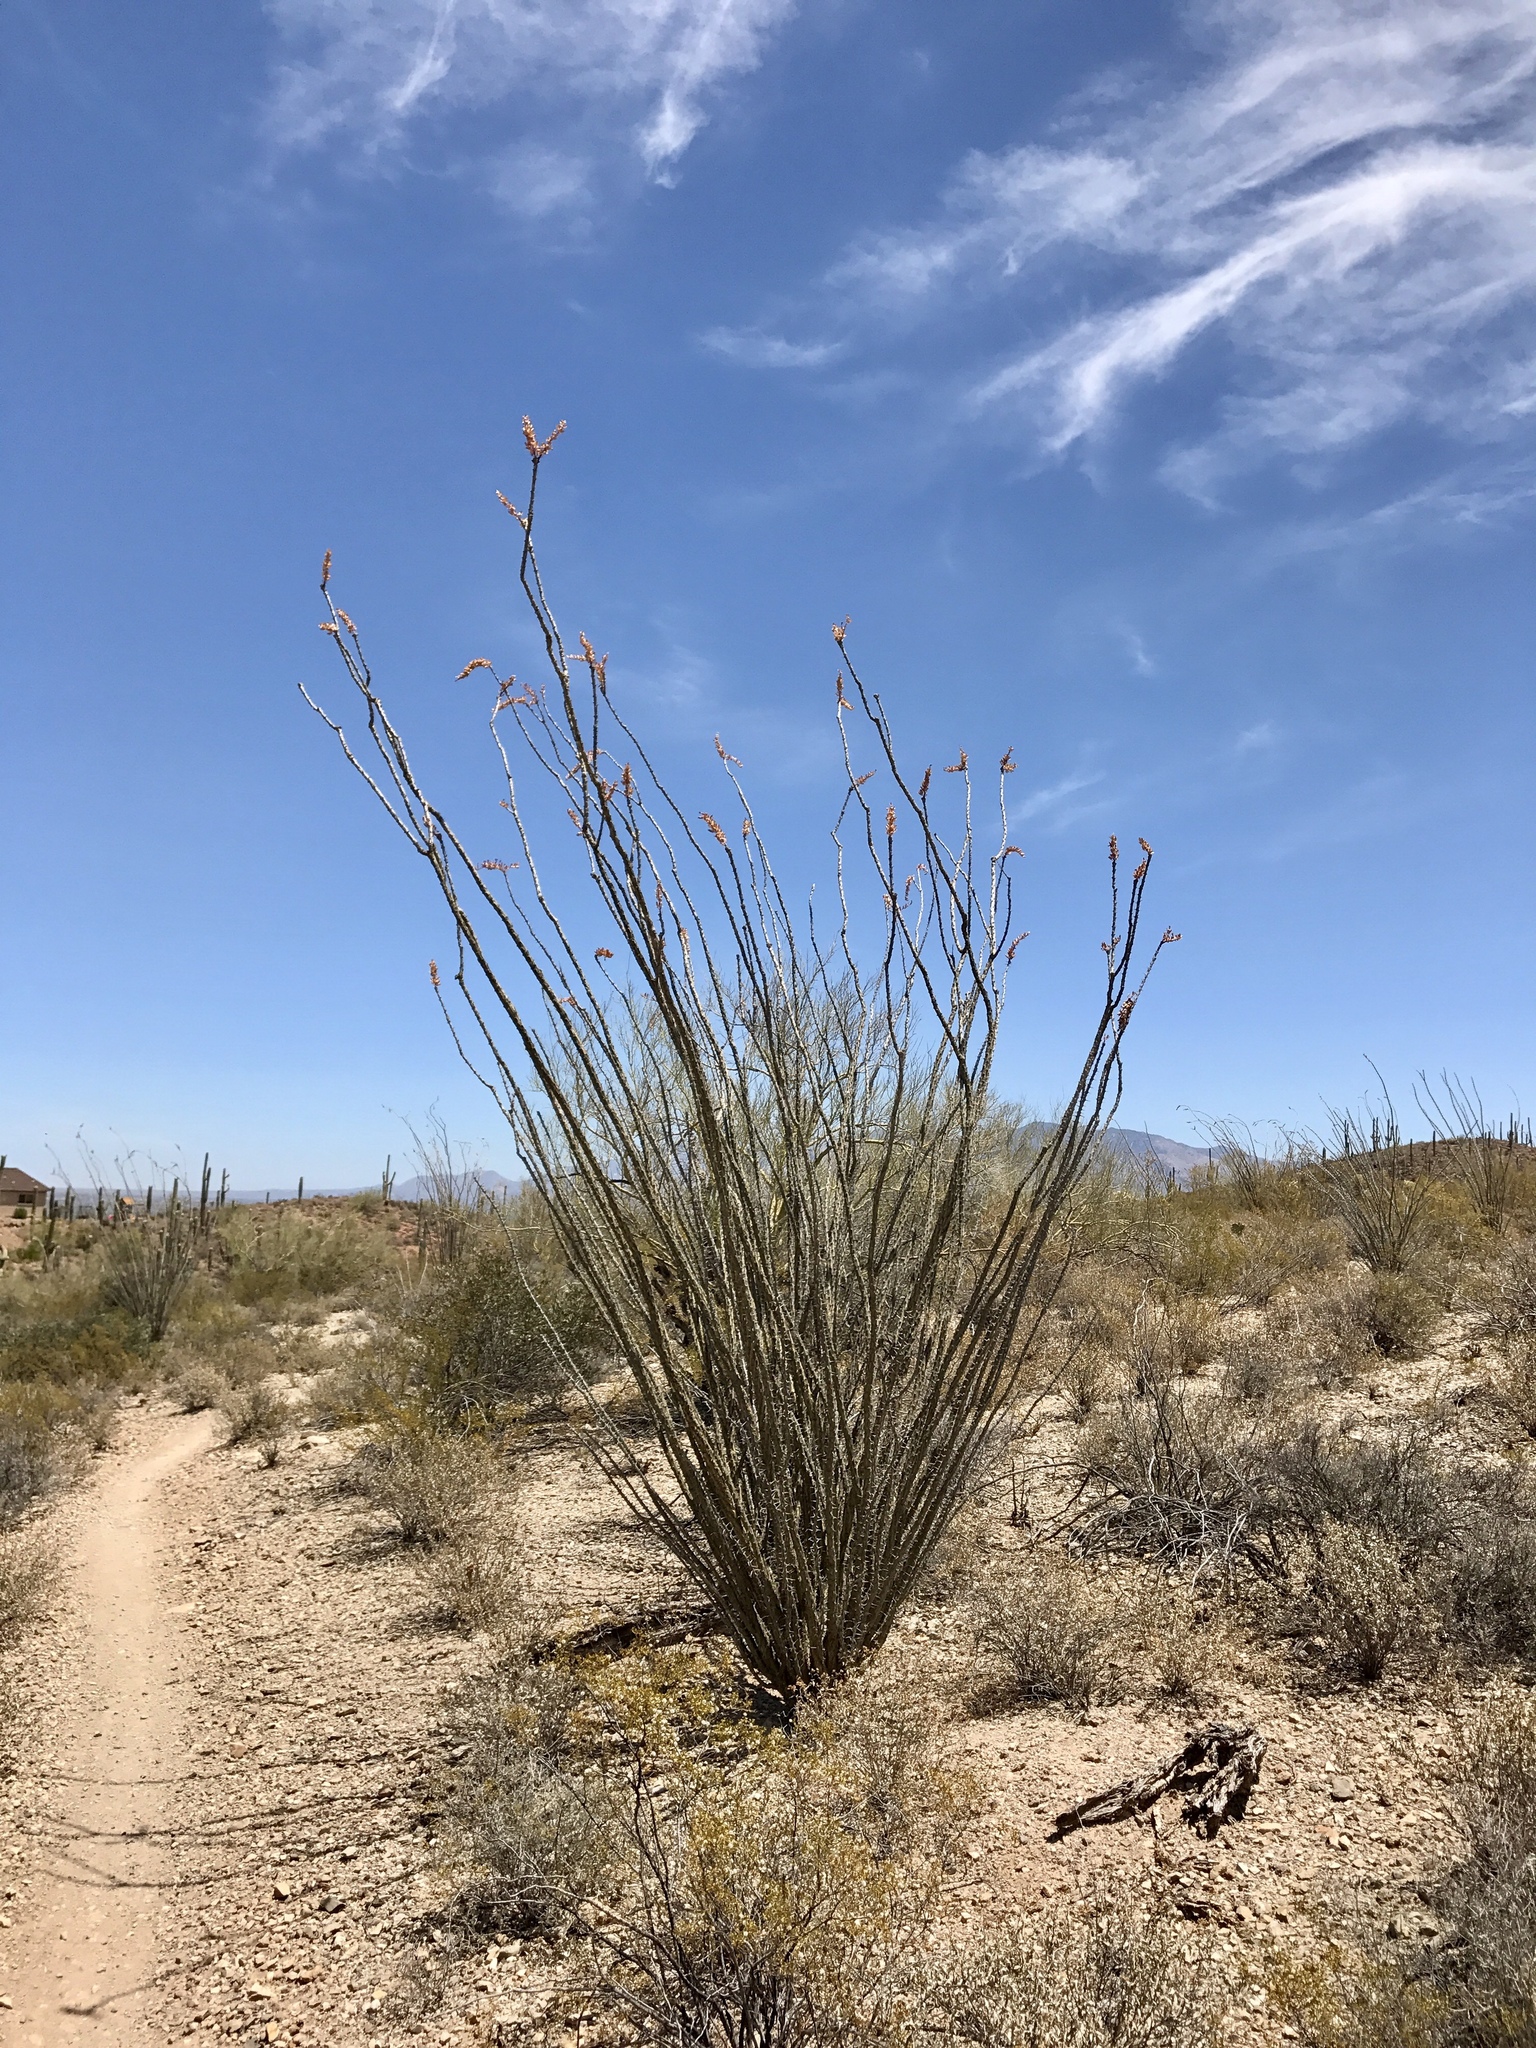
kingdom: Plantae
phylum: Tracheophyta
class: Magnoliopsida
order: Ericales
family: Fouquieriaceae
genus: Fouquieria
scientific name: Fouquieria splendens
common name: Vine-cactus
